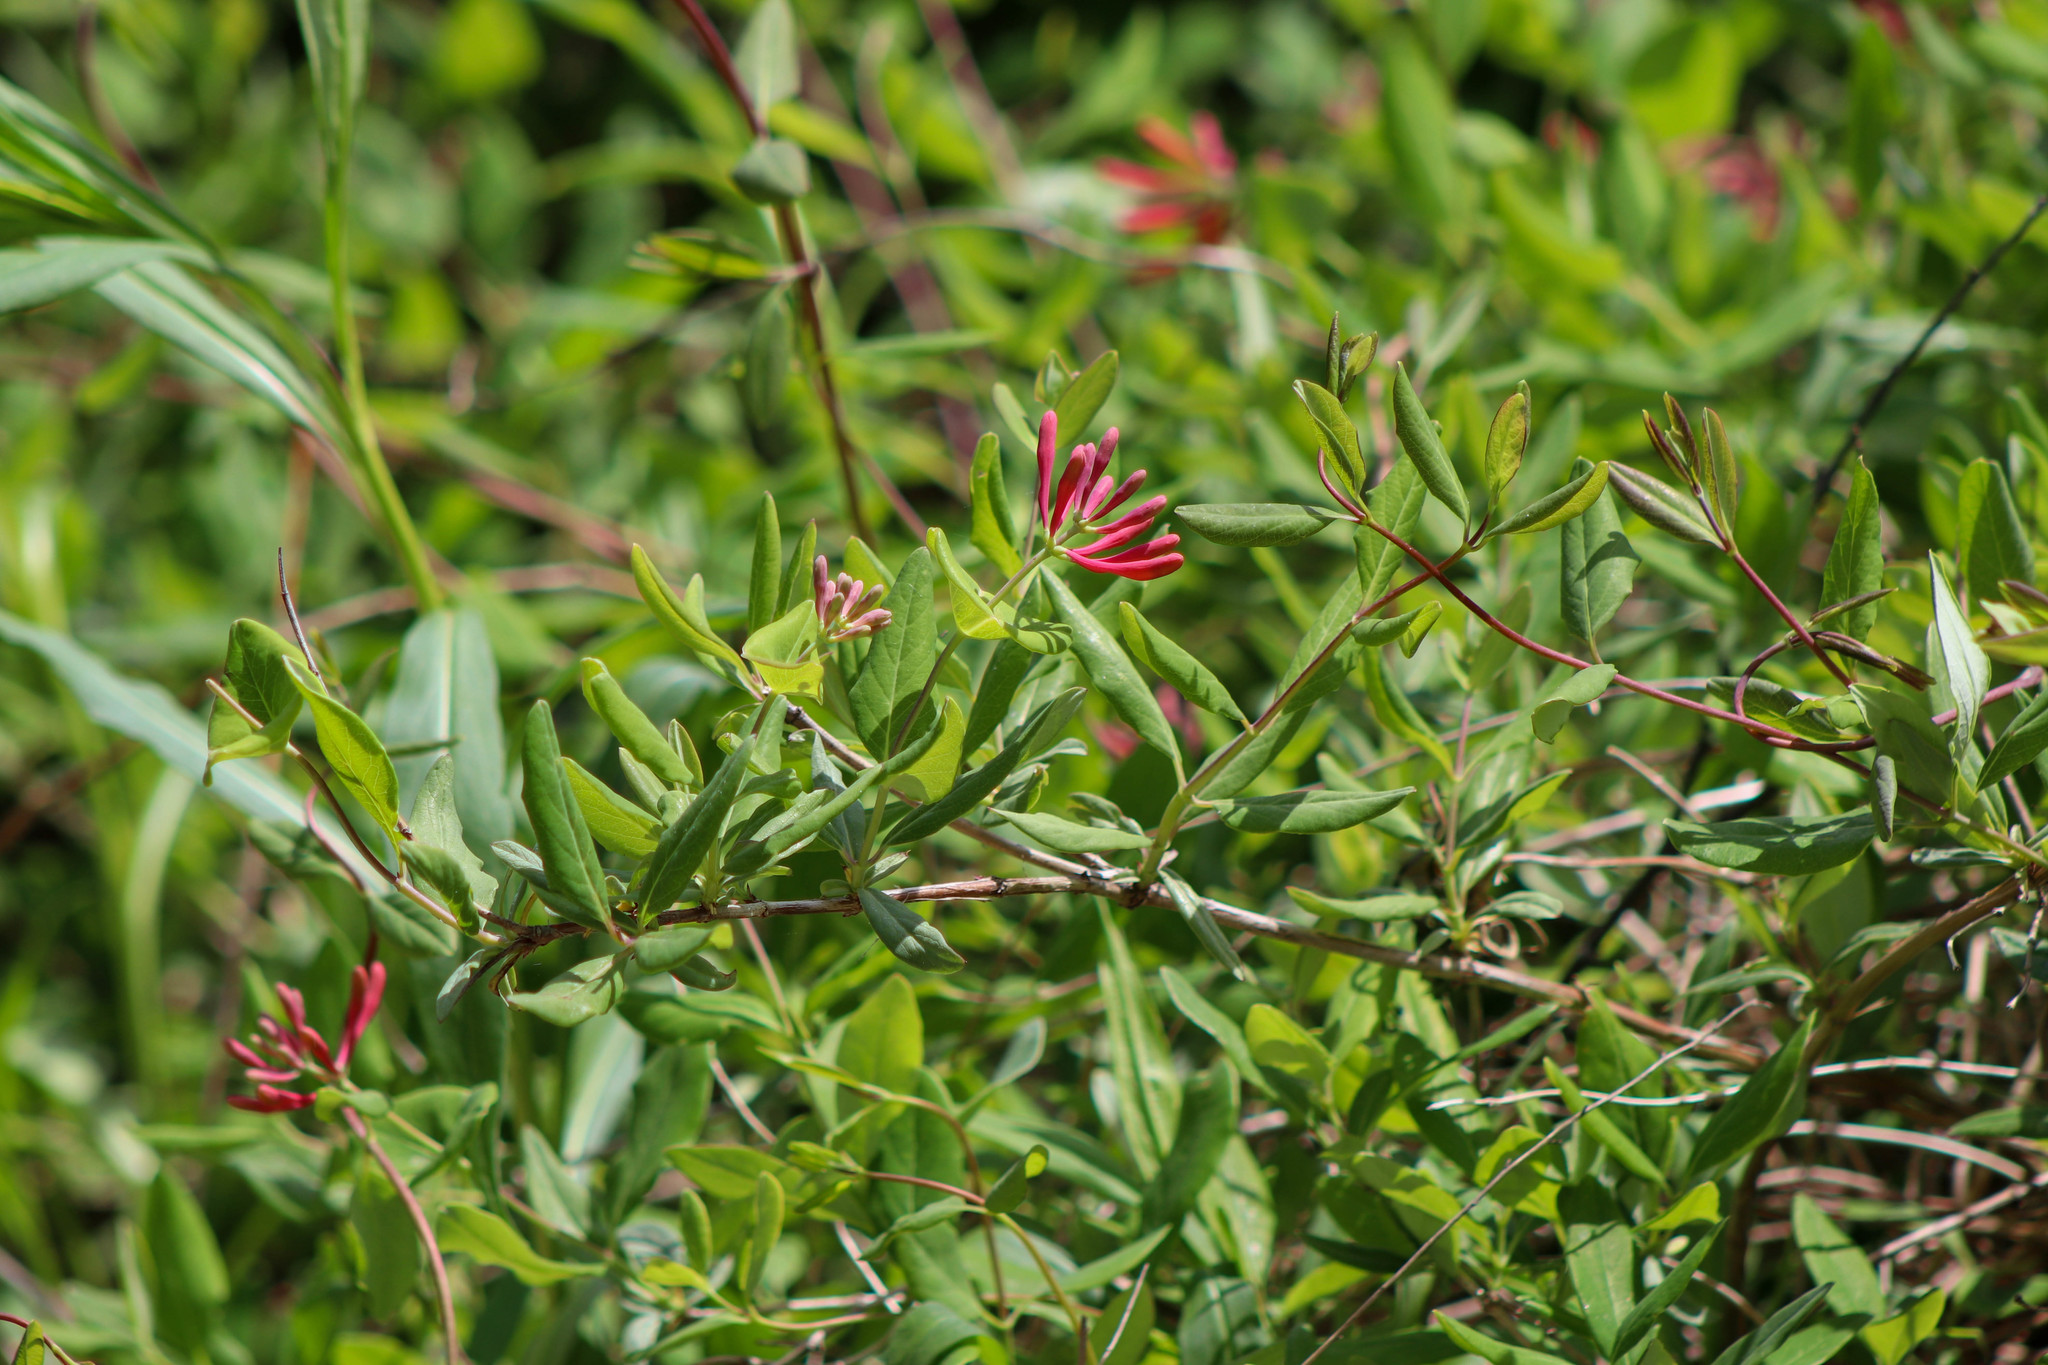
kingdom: Plantae
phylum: Tracheophyta
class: Magnoliopsida
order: Dipsacales
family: Caprifoliaceae
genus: Lonicera
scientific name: Lonicera sempervirens
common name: Coral honeysuckle
